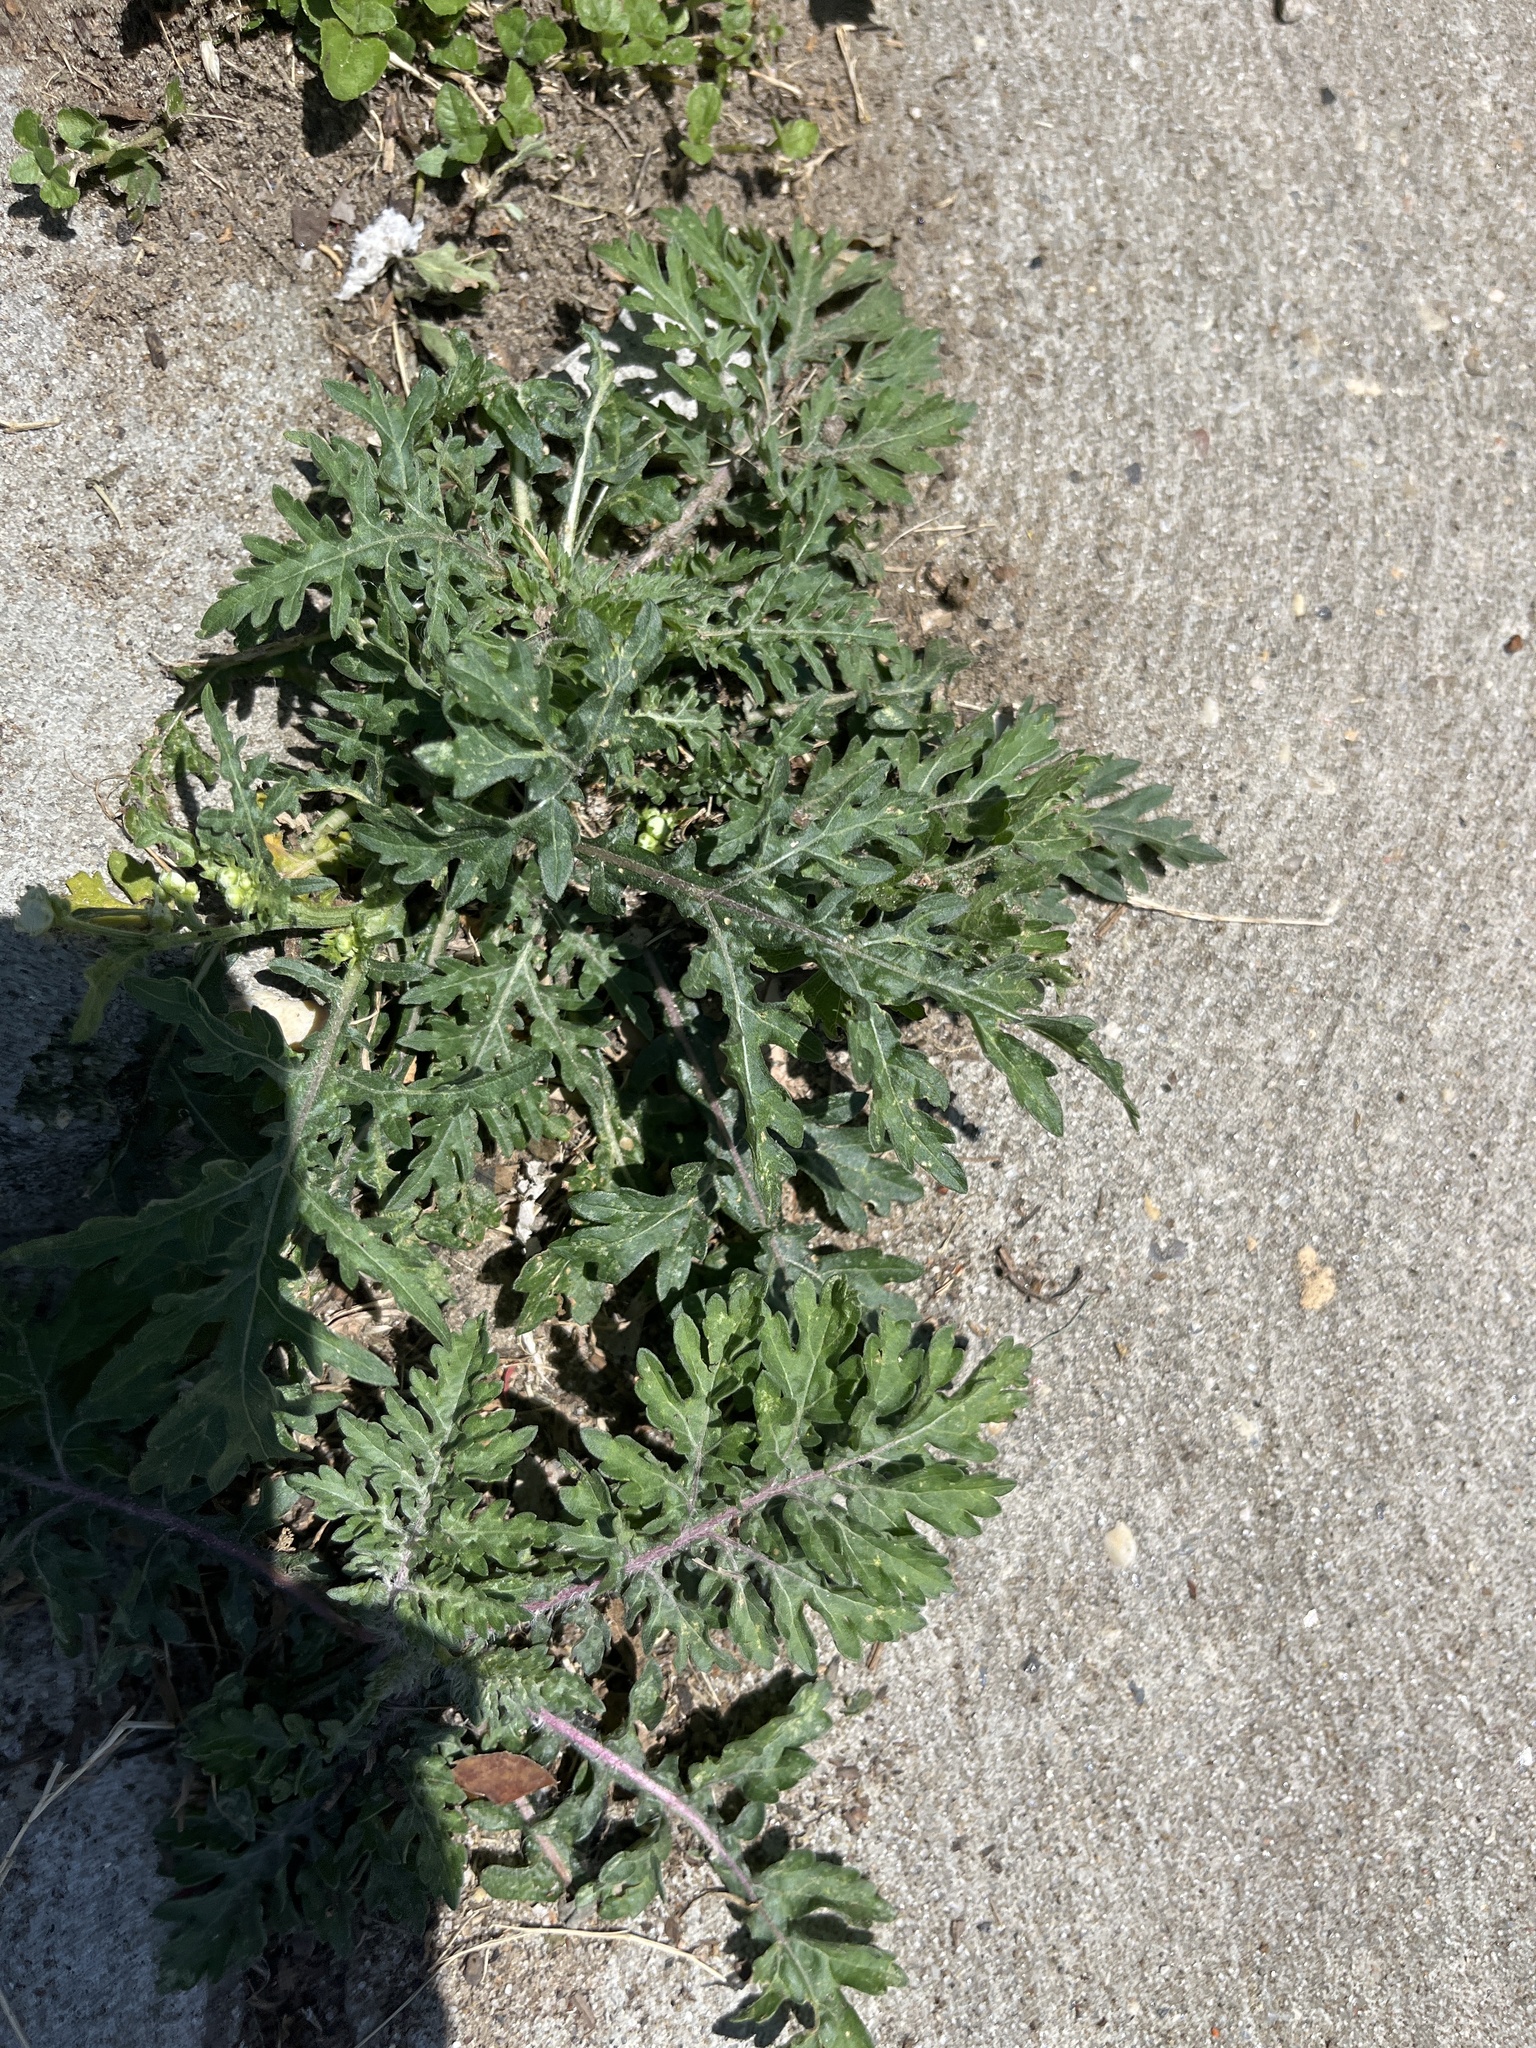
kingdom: Plantae
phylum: Tracheophyta
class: Magnoliopsida
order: Asterales
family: Asteraceae
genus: Parthenium
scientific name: Parthenium hysterophorus
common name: Santa maria feverfew
